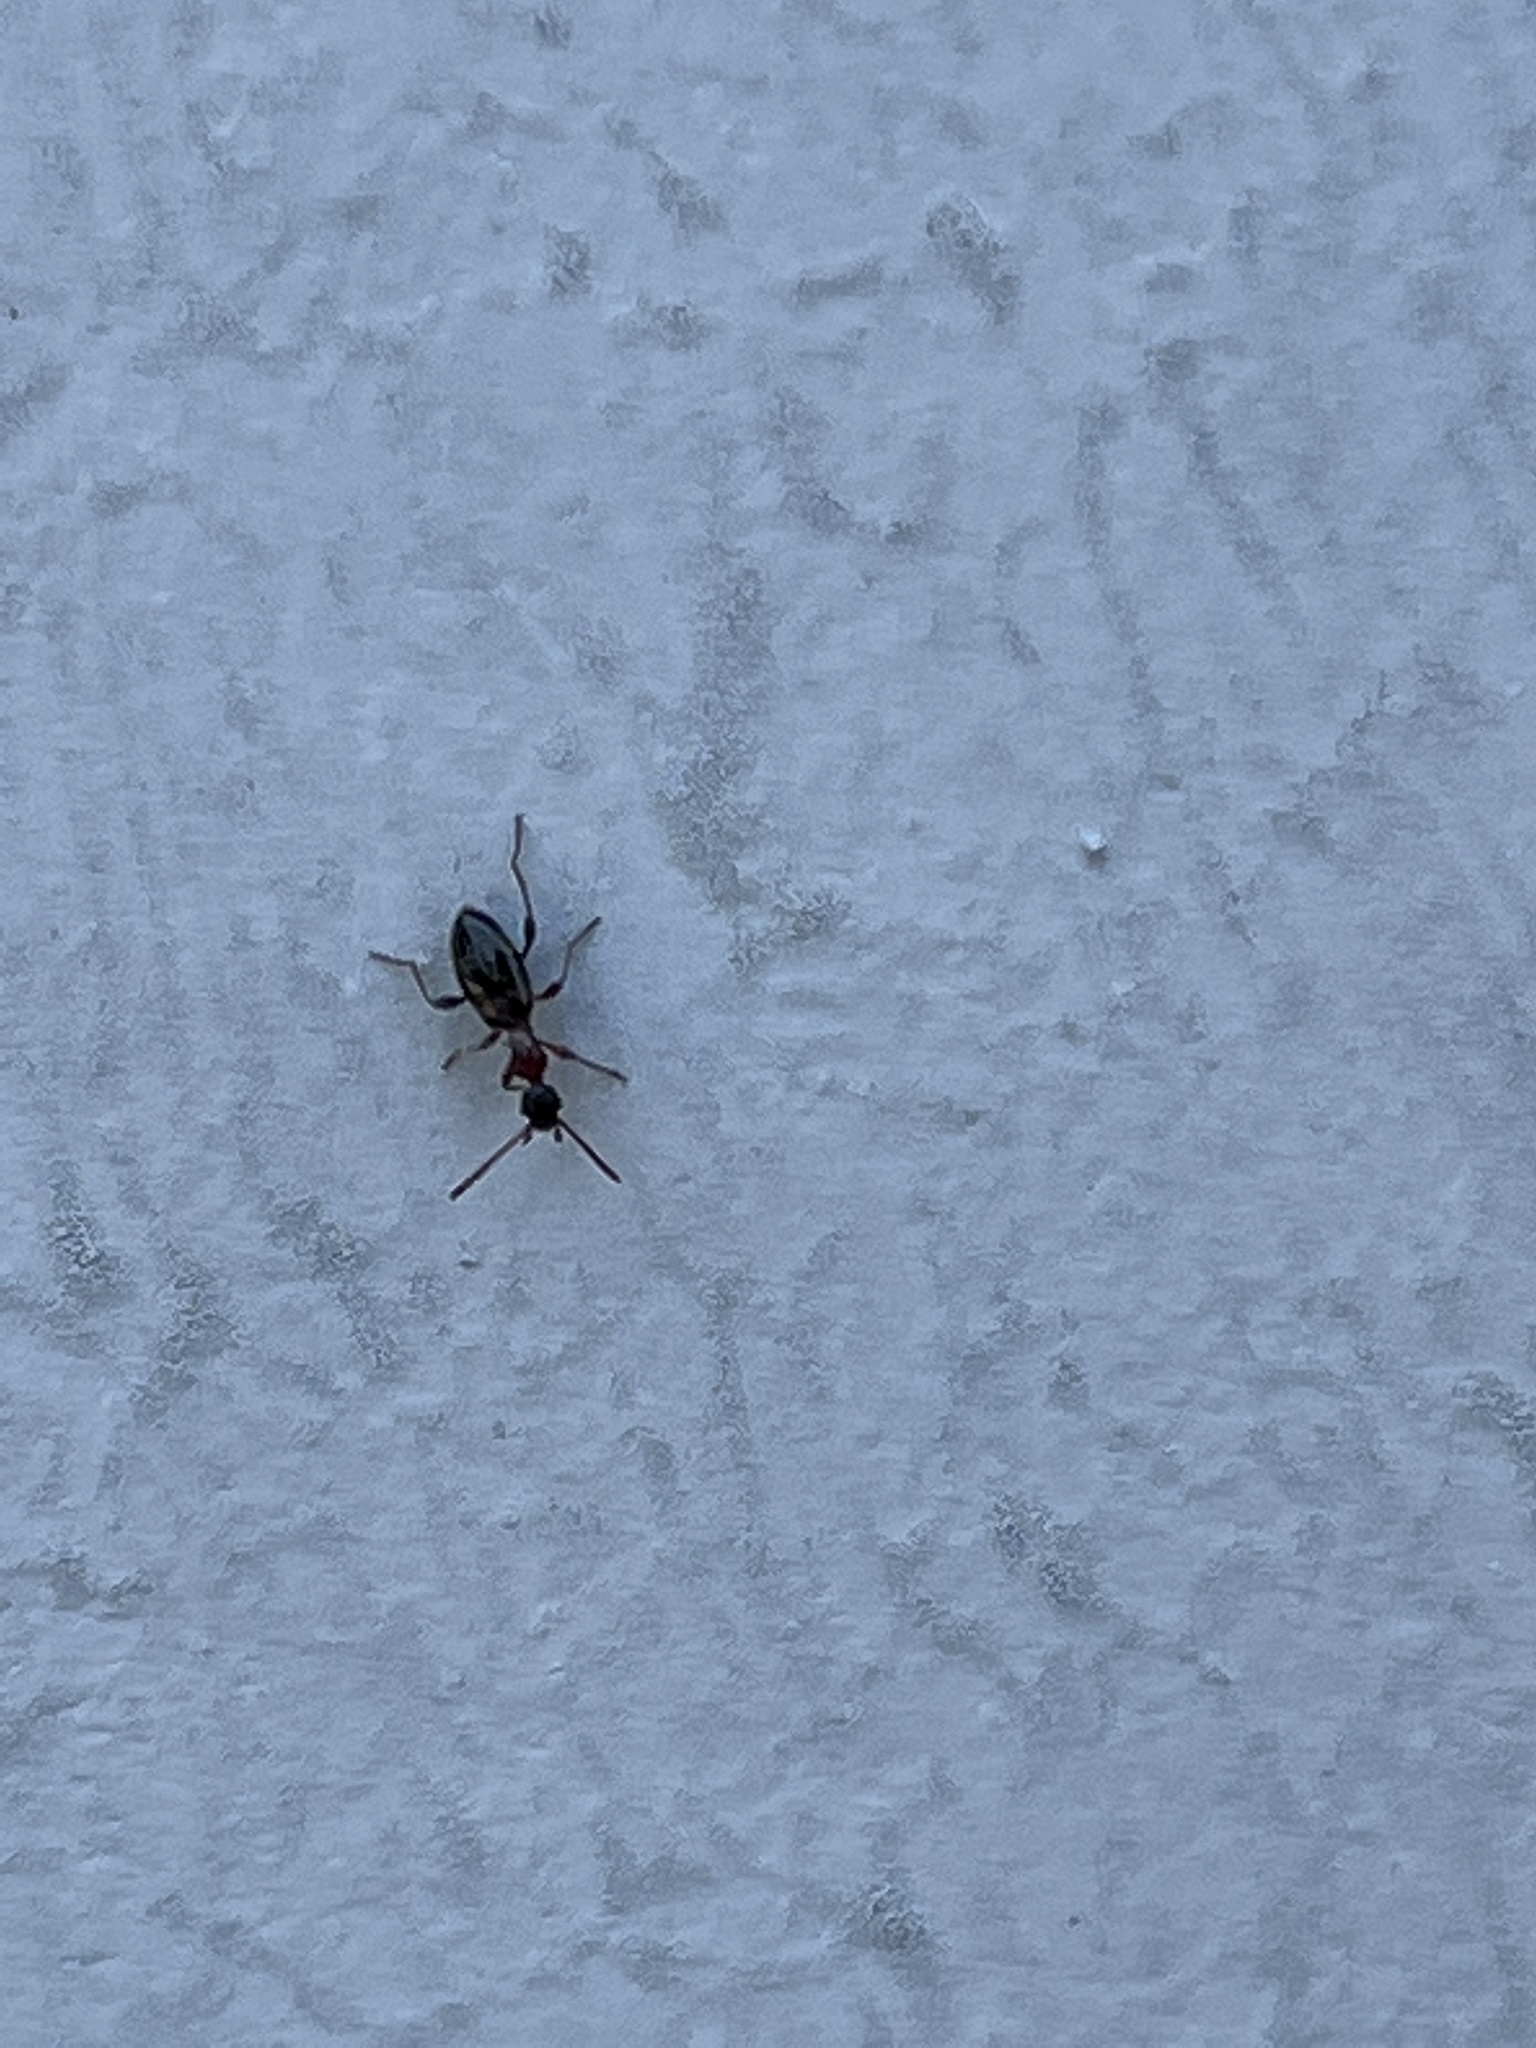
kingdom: Animalia
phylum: Arthropoda
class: Insecta
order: Coleoptera
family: Anthicidae
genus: Anthelephila
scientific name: Anthelephila pedestris
